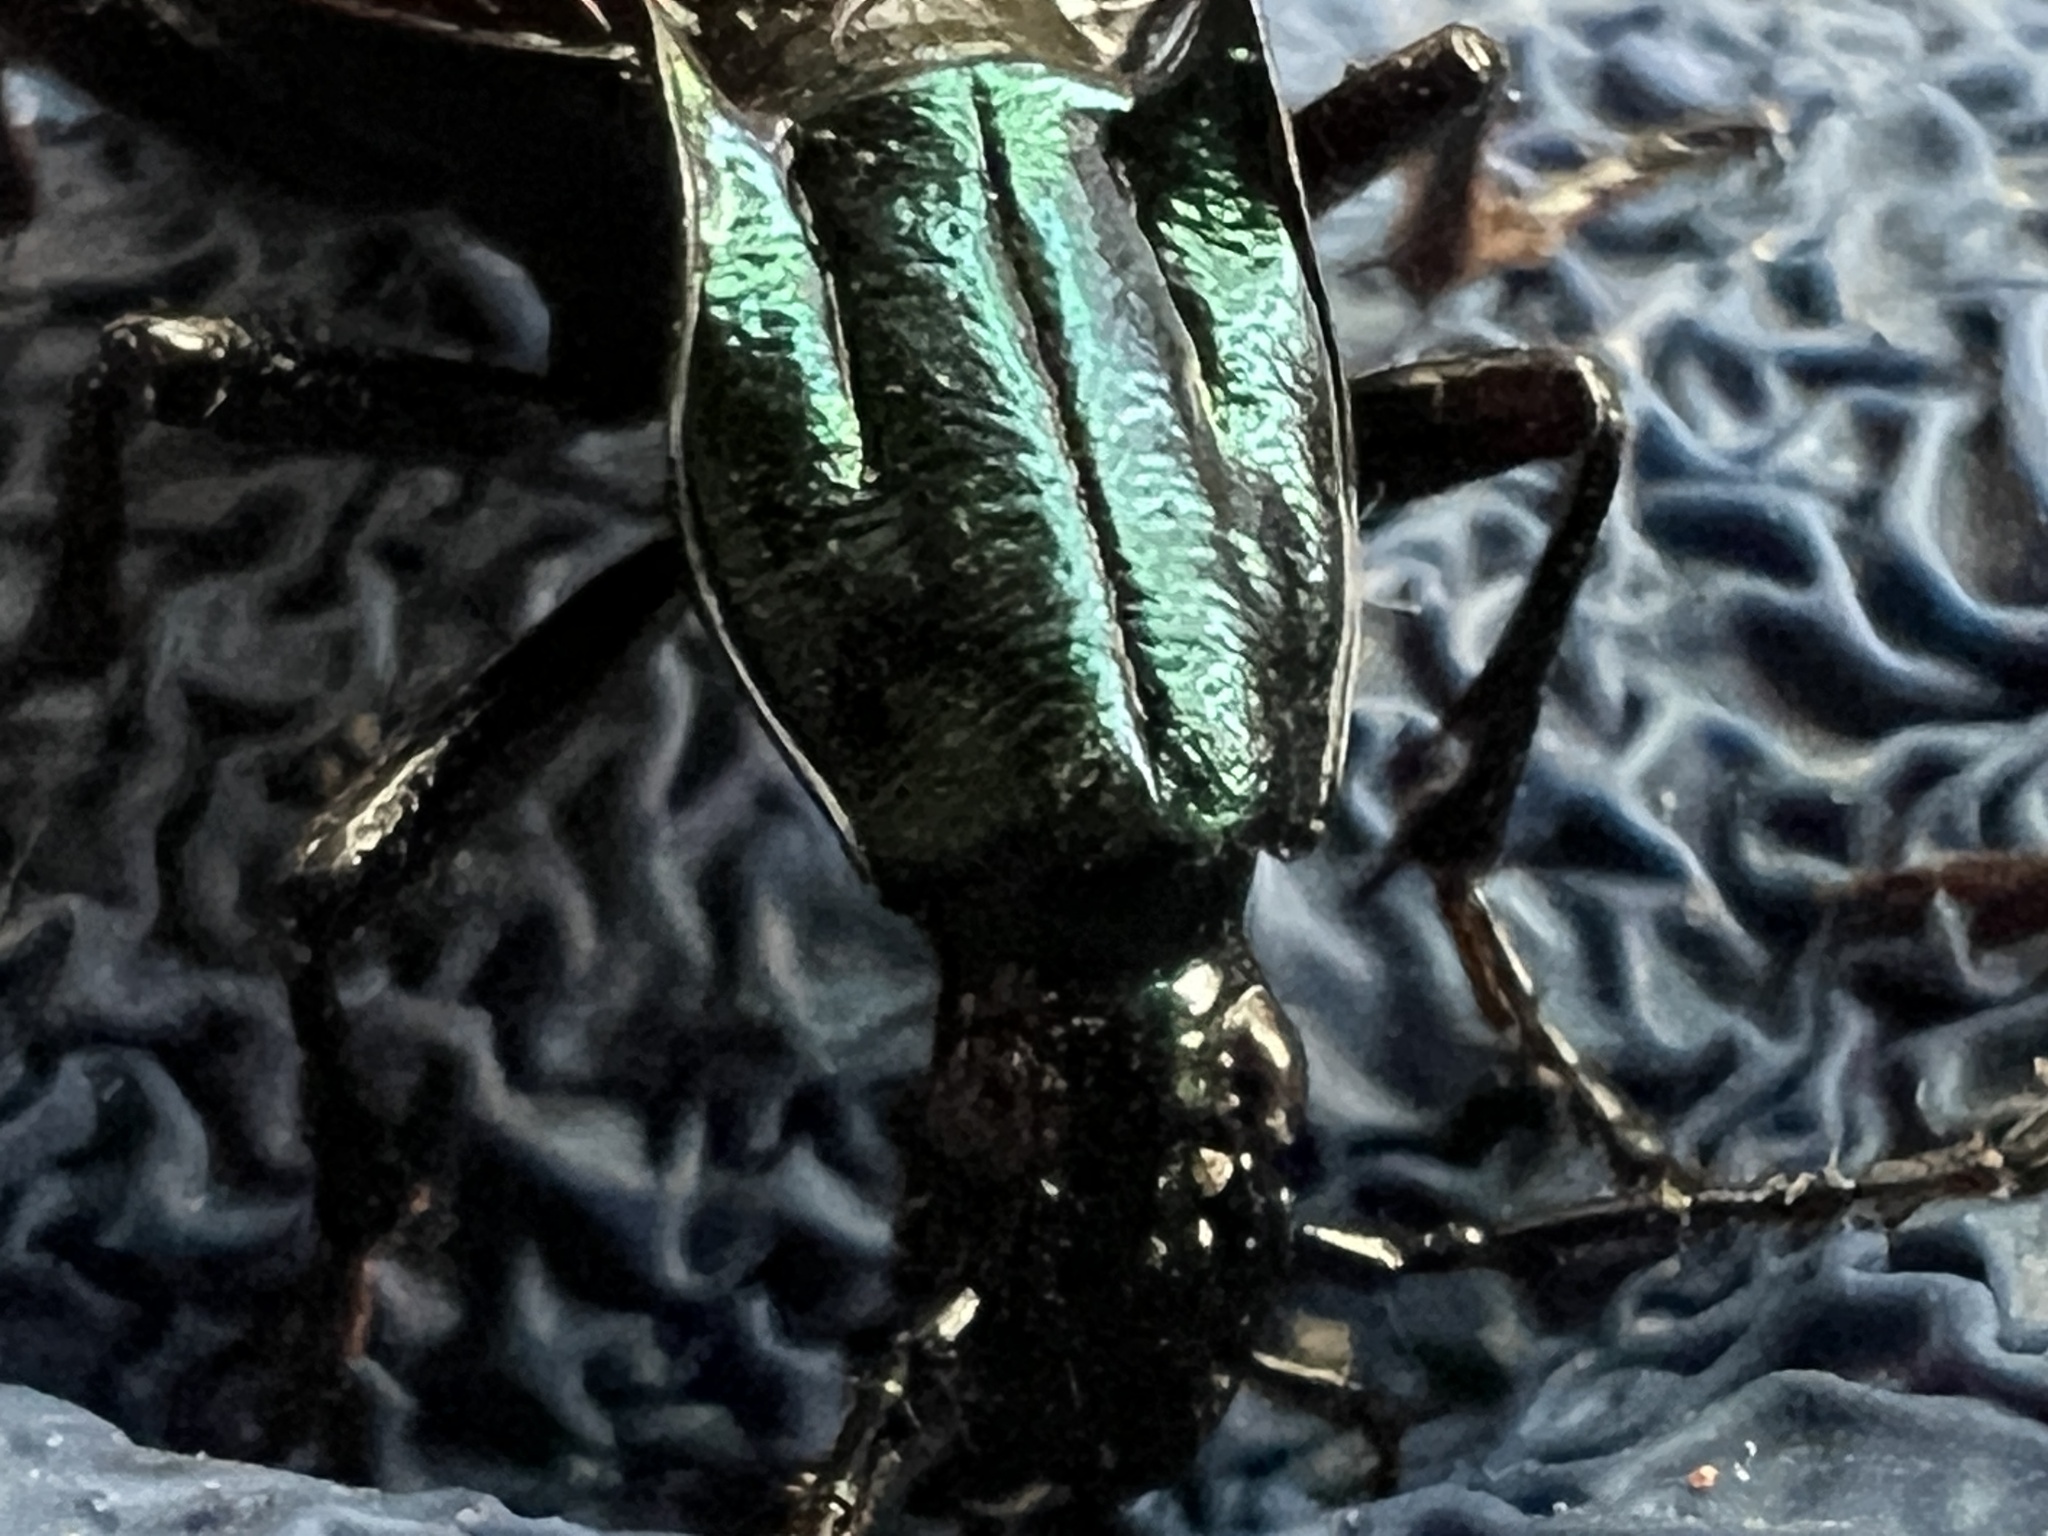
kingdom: Animalia
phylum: Arthropoda
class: Insecta
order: Coleoptera
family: Carabidae
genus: Brachygnathus
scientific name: Brachygnathus angusticollis
